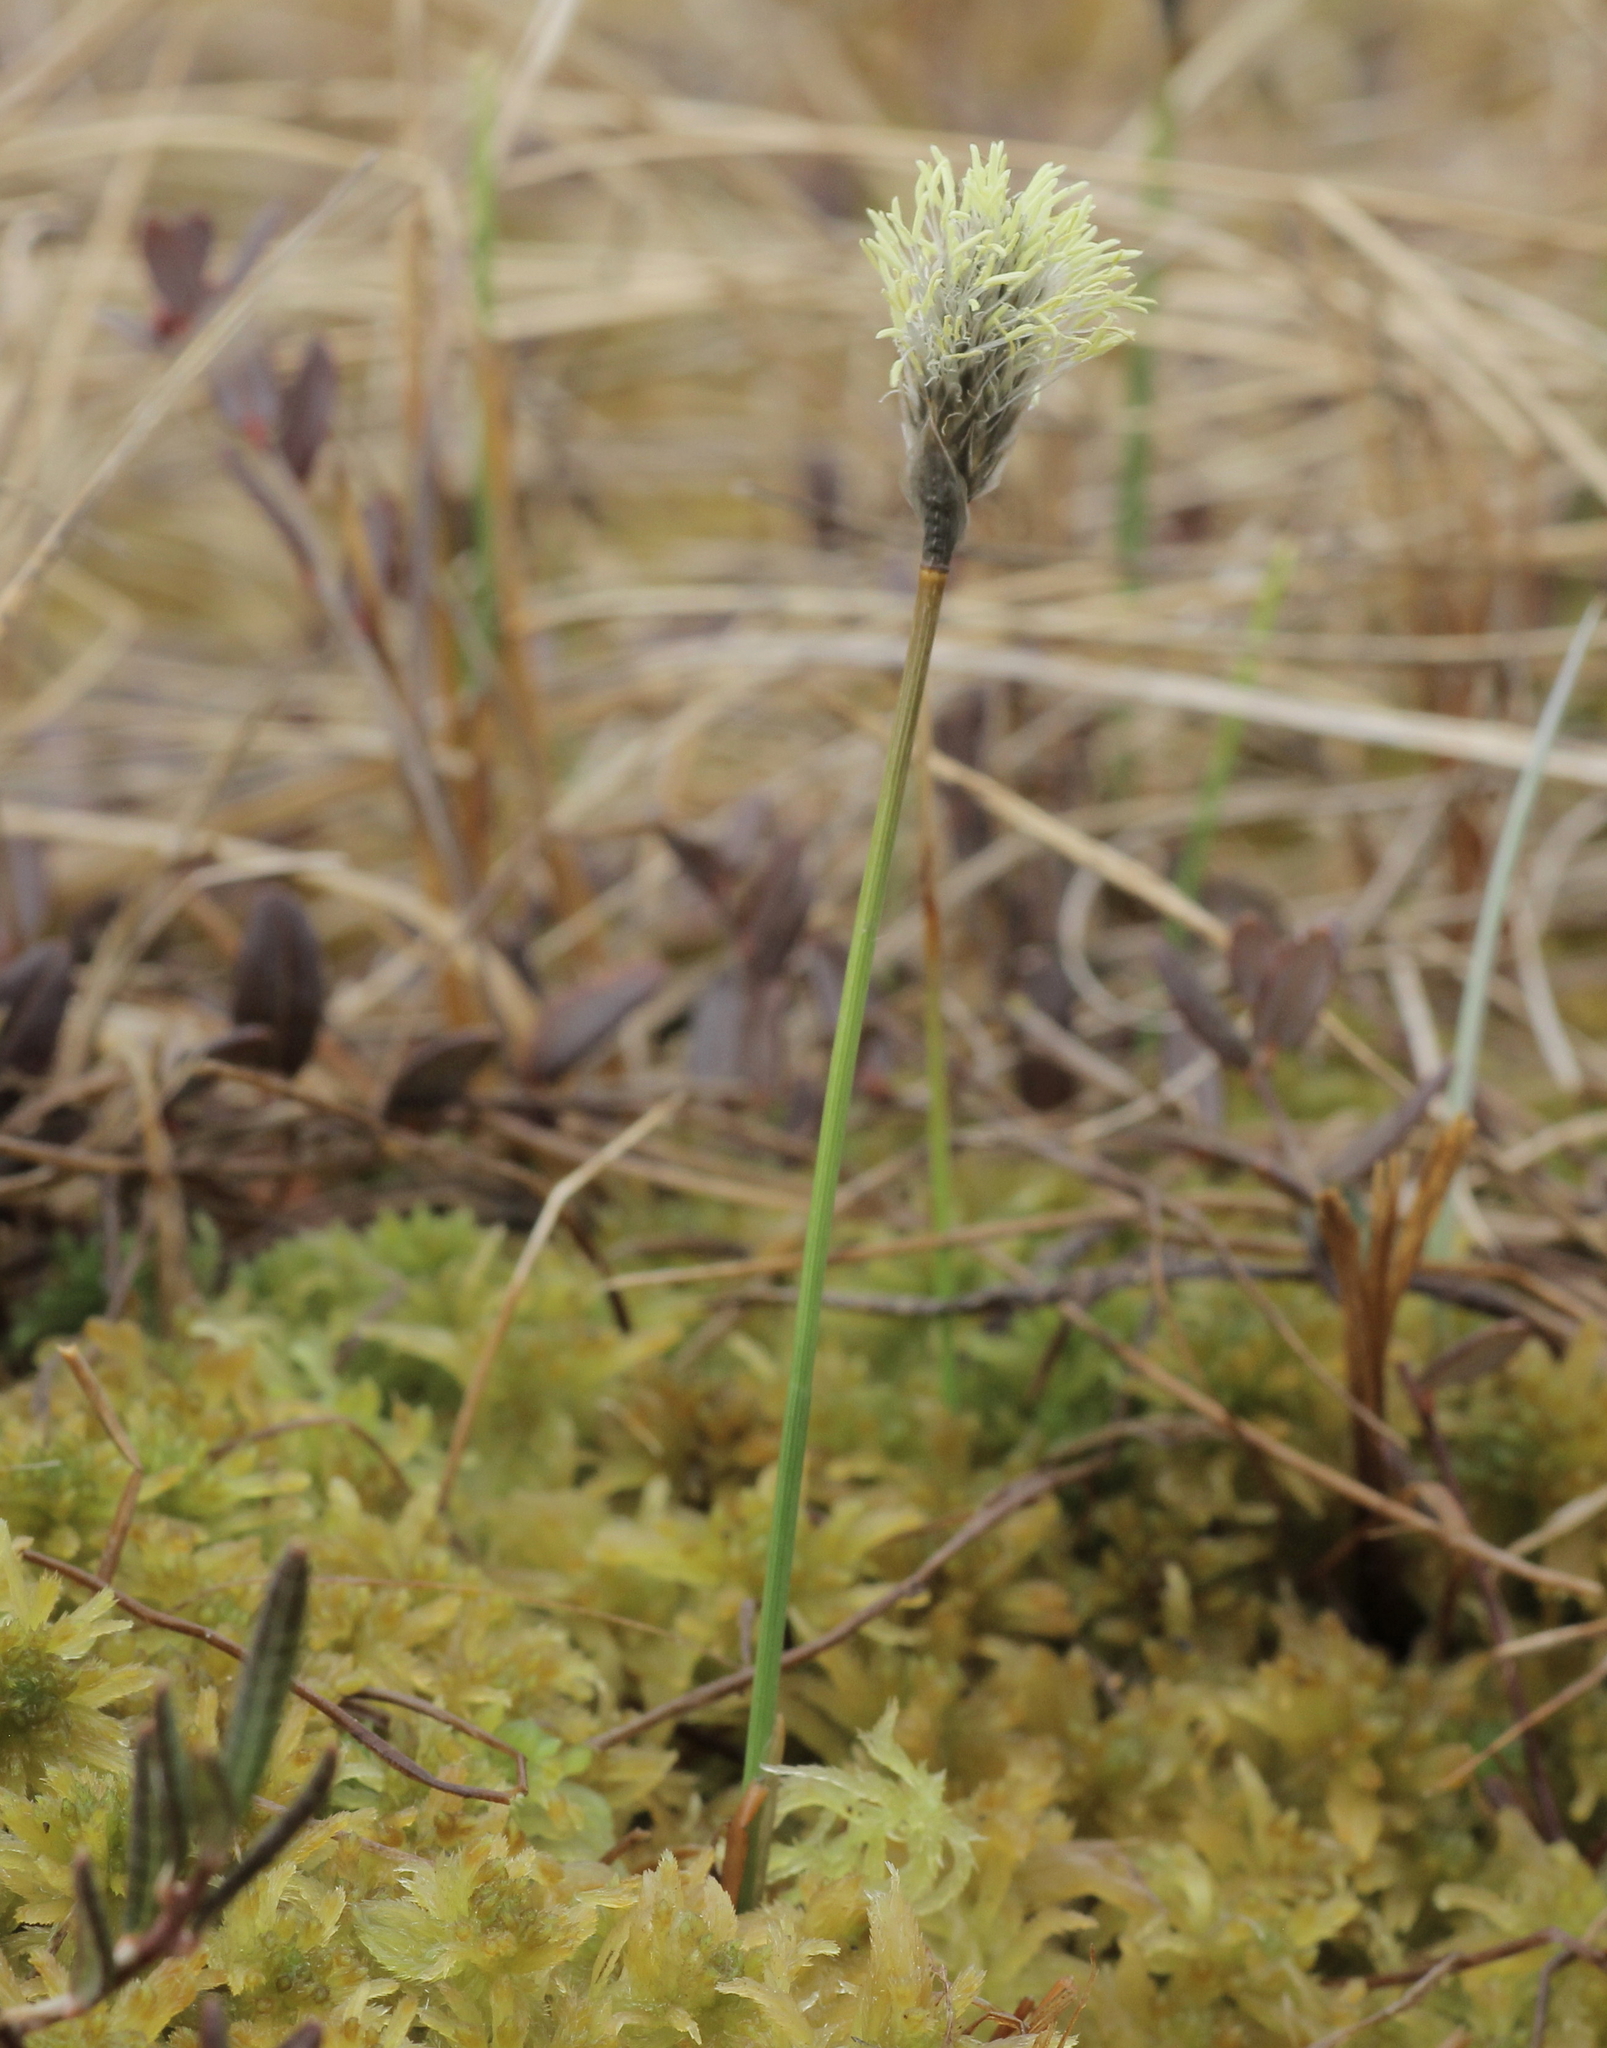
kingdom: Plantae
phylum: Tracheophyta
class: Liliopsida
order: Poales
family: Cyperaceae
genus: Eriophorum
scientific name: Eriophorum chamissonis
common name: Chamisso's cottongrass
